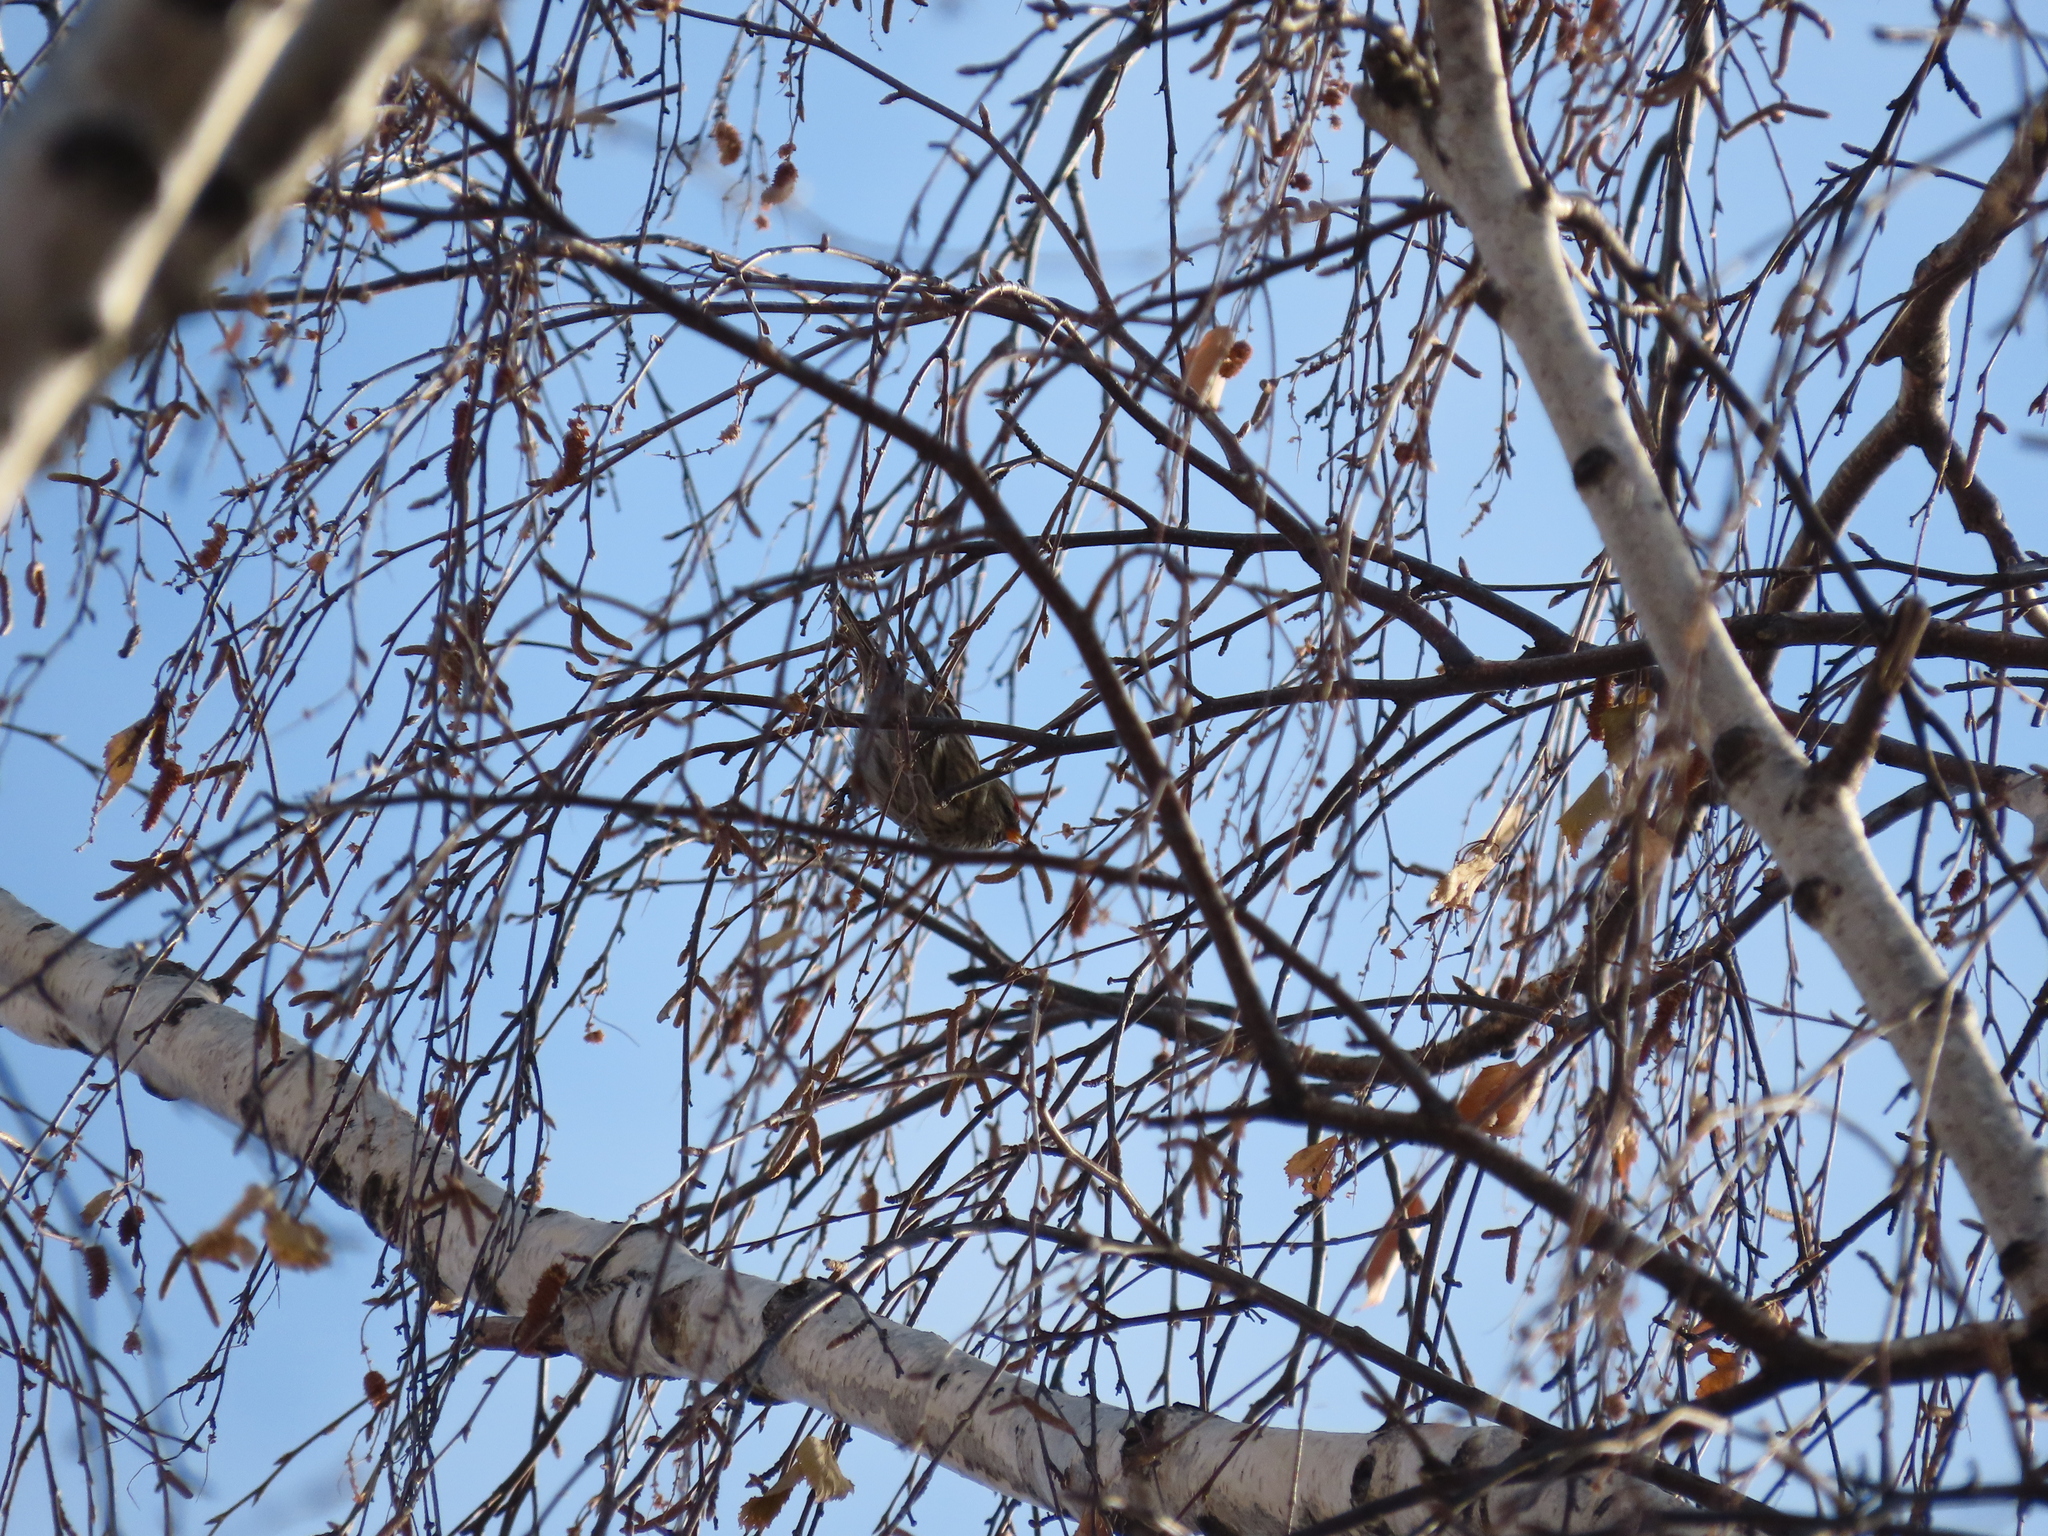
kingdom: Animalia
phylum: Chordata
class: Aves
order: Passeriformes
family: Fringillidae
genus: Acanthis
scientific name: Acanthis flammea
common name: Common redpoll
